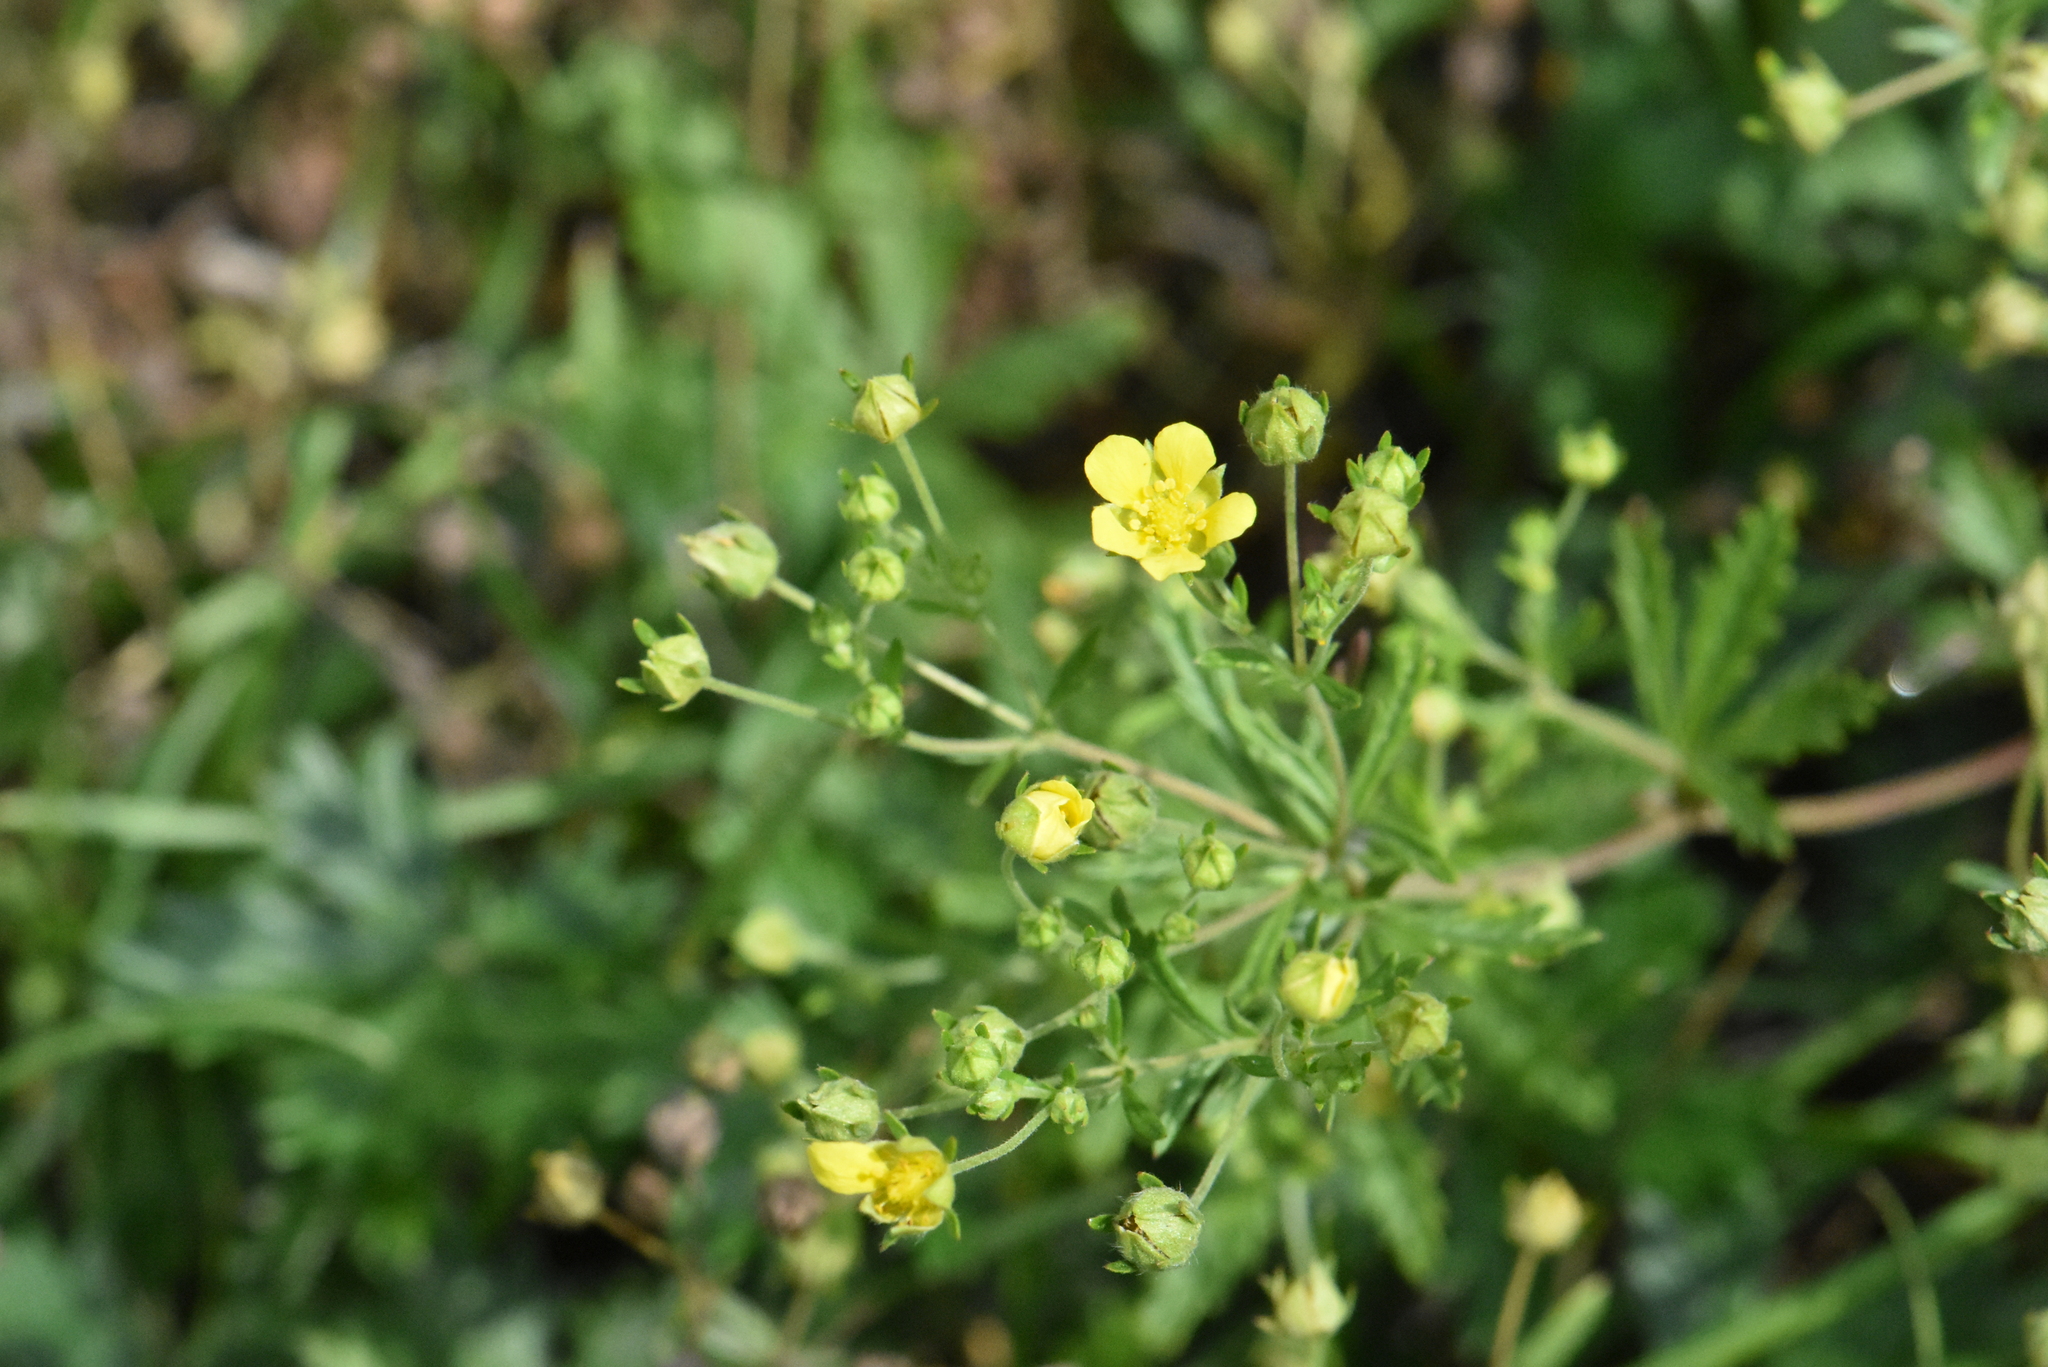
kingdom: Plantae
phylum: Tracheophyta
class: Magnoliopsida
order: Rosales
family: Rosaceae
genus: Potentilla
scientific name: Potentilla argentea
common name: Hoary cinquefoil
